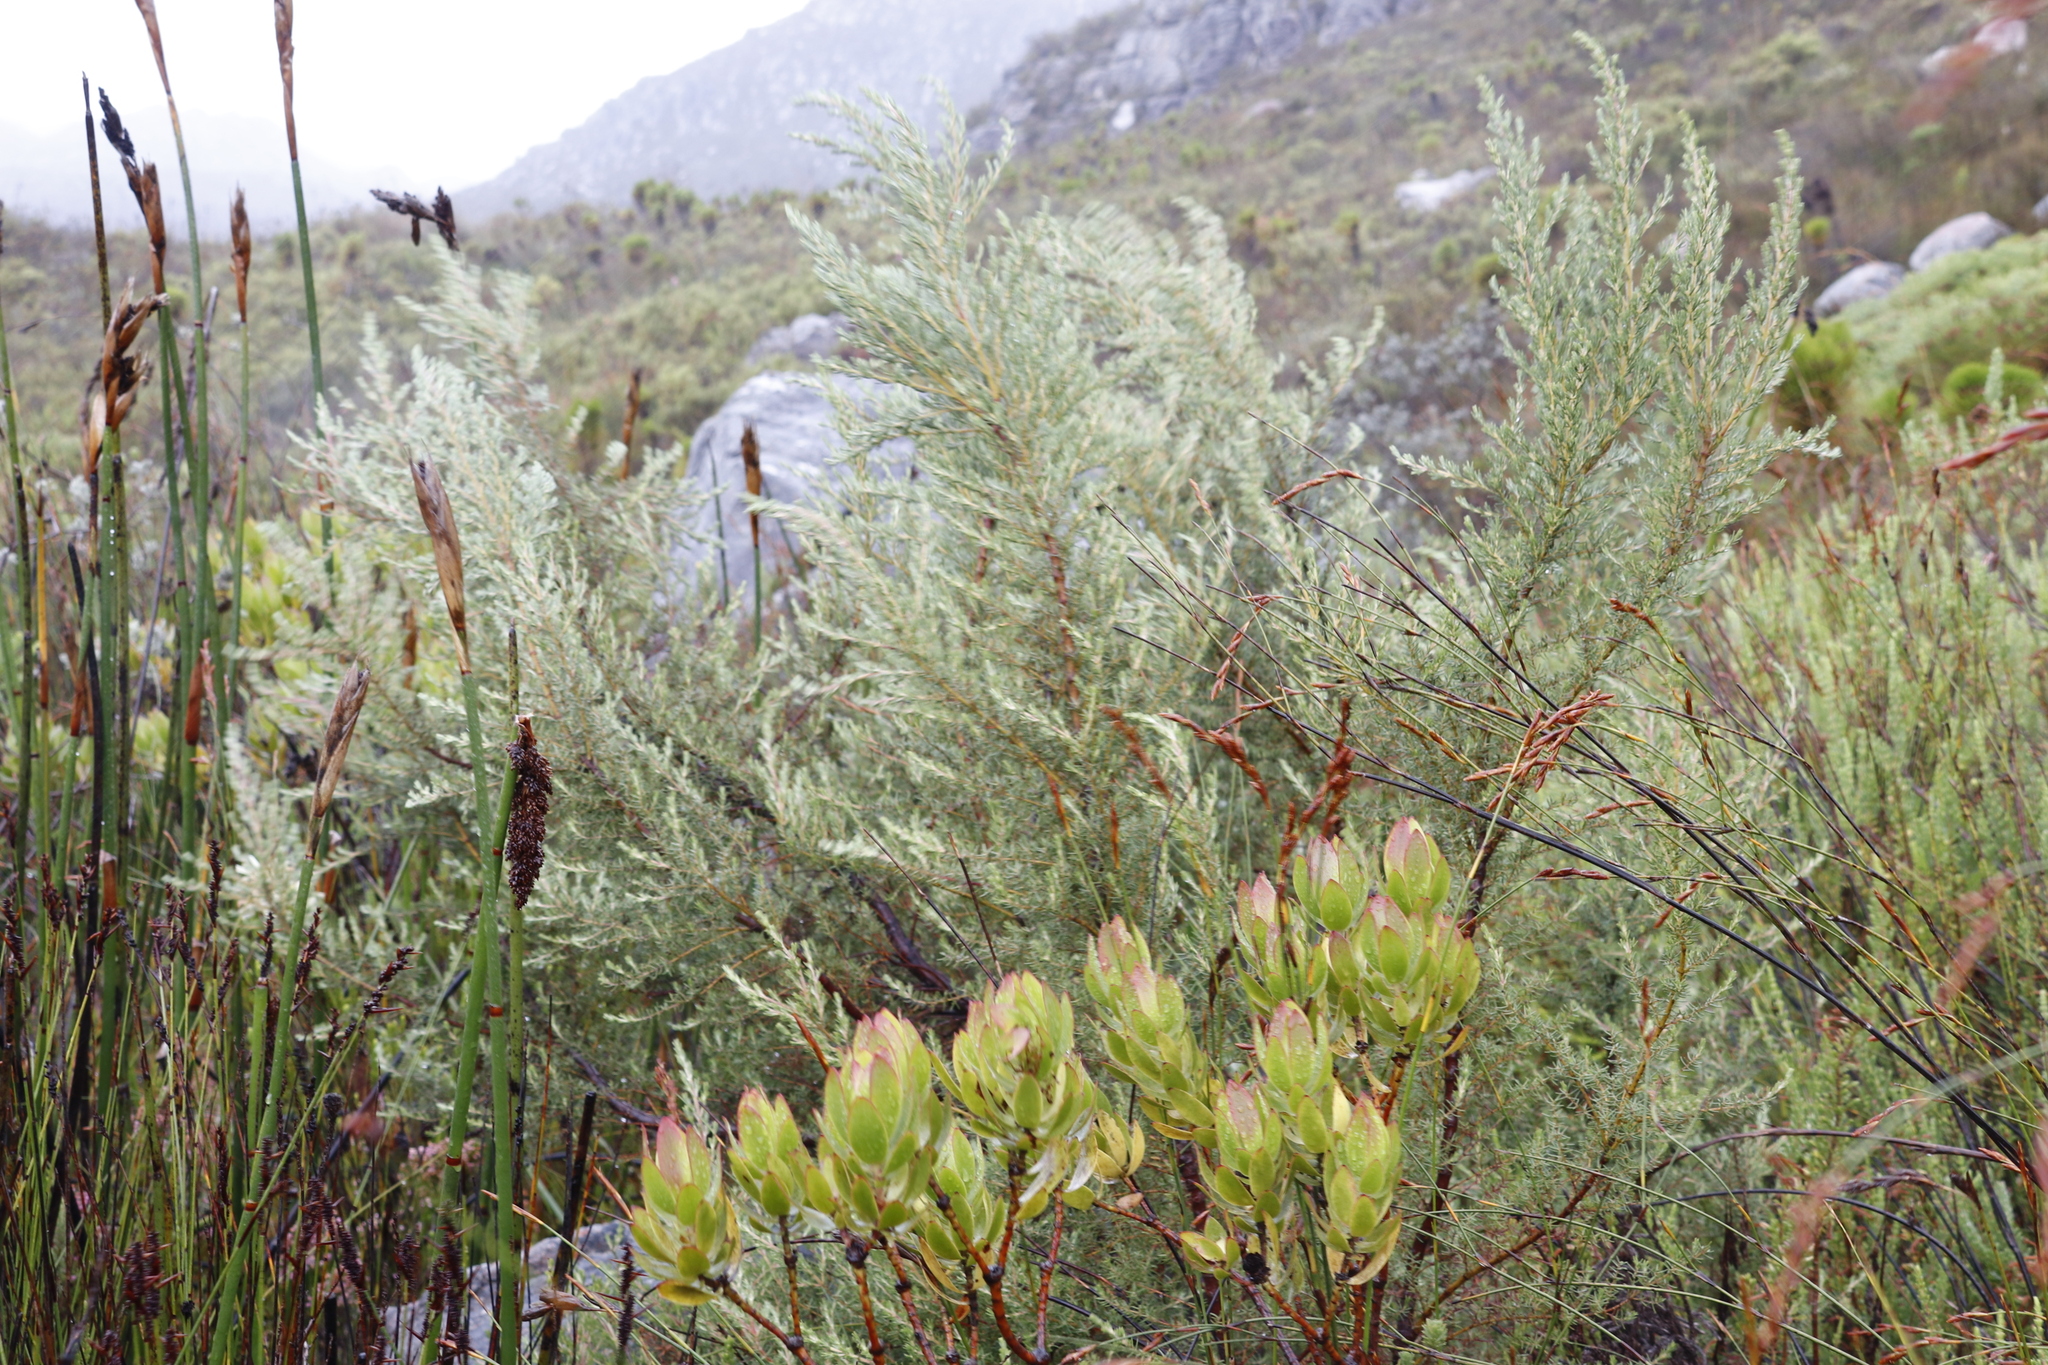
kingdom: Plantae
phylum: Tracheophyta
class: Magnoliopsida
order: Cornales
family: Grubbiaceae
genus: Grubbia
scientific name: Grubbia rosmarinifolia
